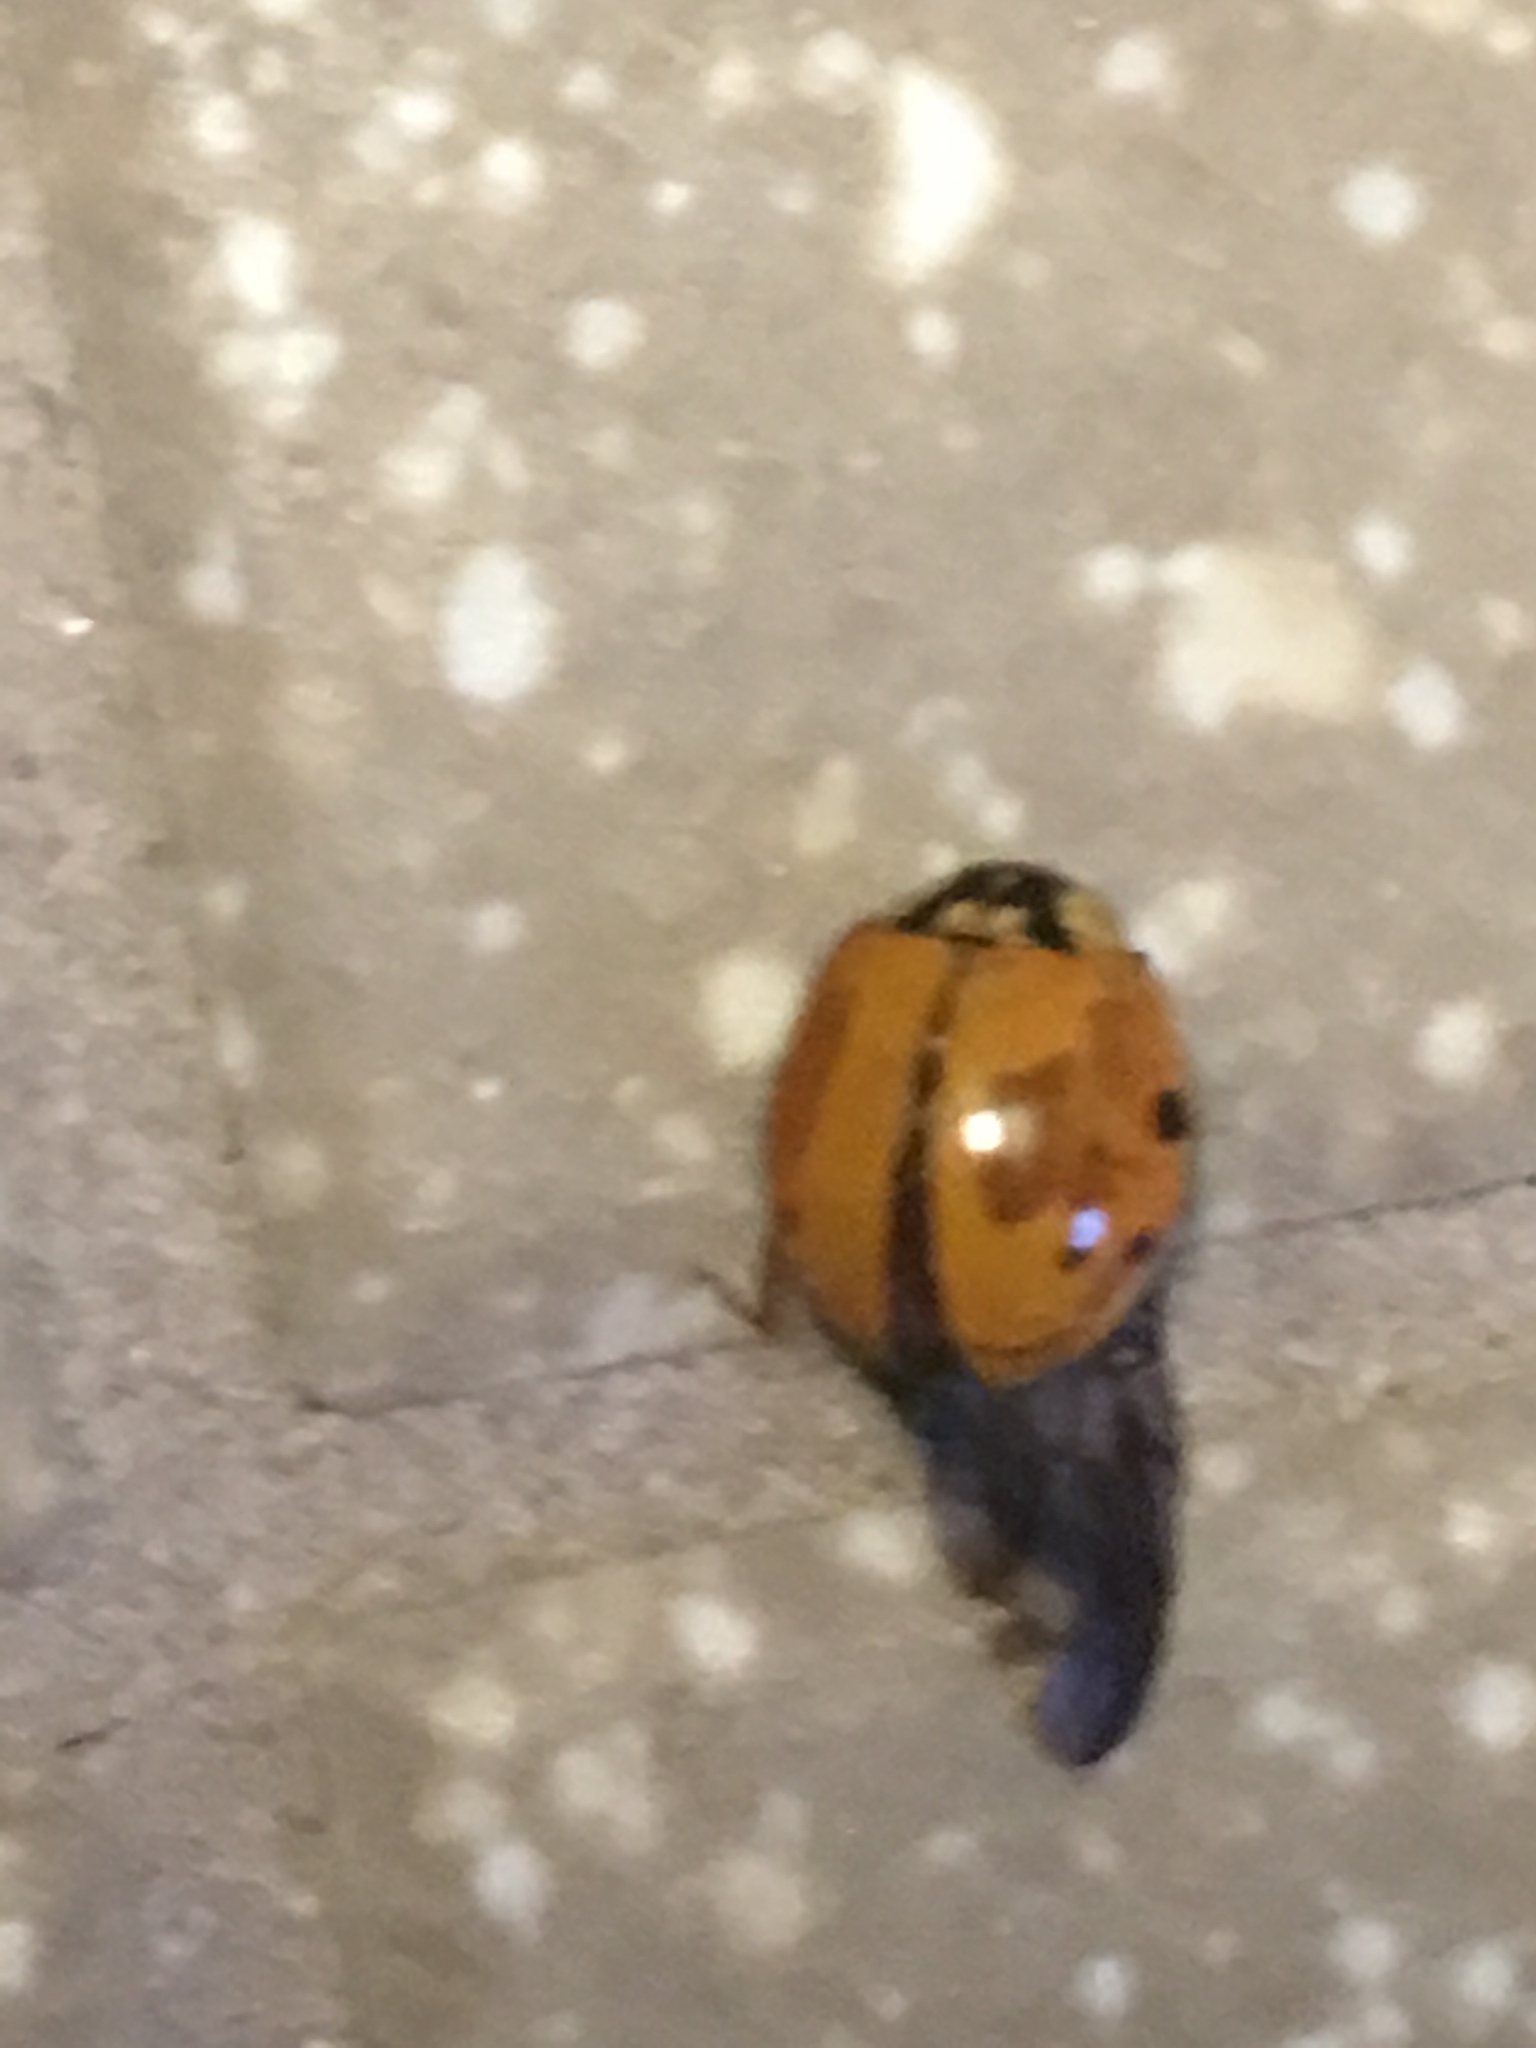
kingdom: Animalia
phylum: Arthropoda
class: Insecta
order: Coleoptera
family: Coccinellidae
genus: Harmonia
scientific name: Harmonia axyridis
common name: Harlequin ladybird
